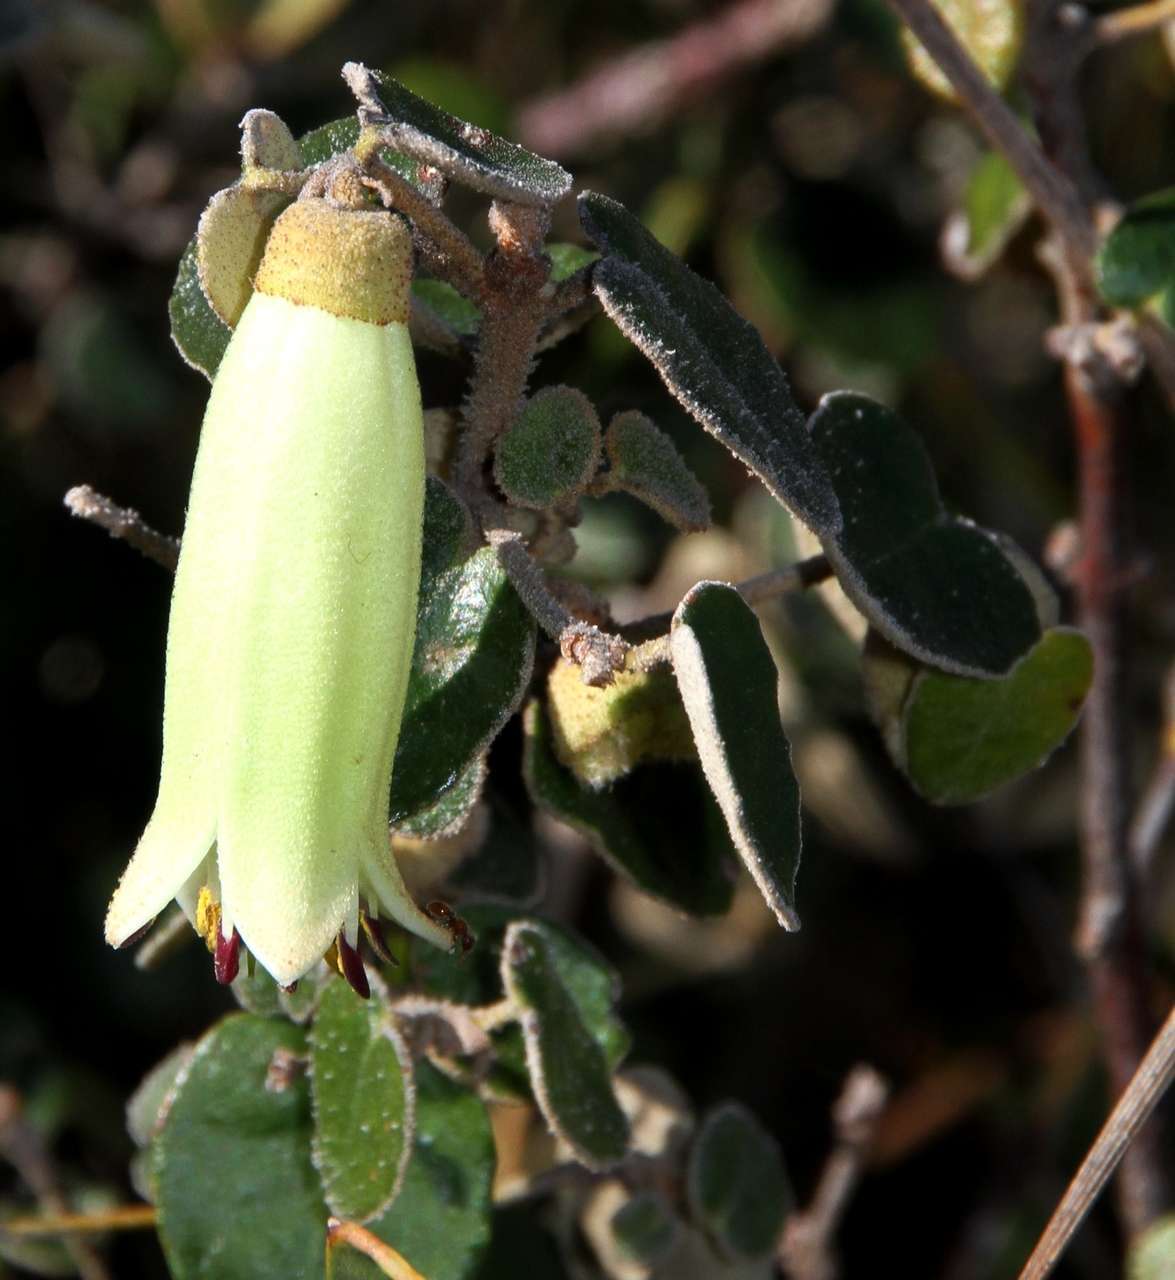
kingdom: Plantae
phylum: Tracheophyta
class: Magnoliopsida
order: Sapindales
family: Rutaceae
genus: Correa
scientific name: Correa reflexa
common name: Common correa
